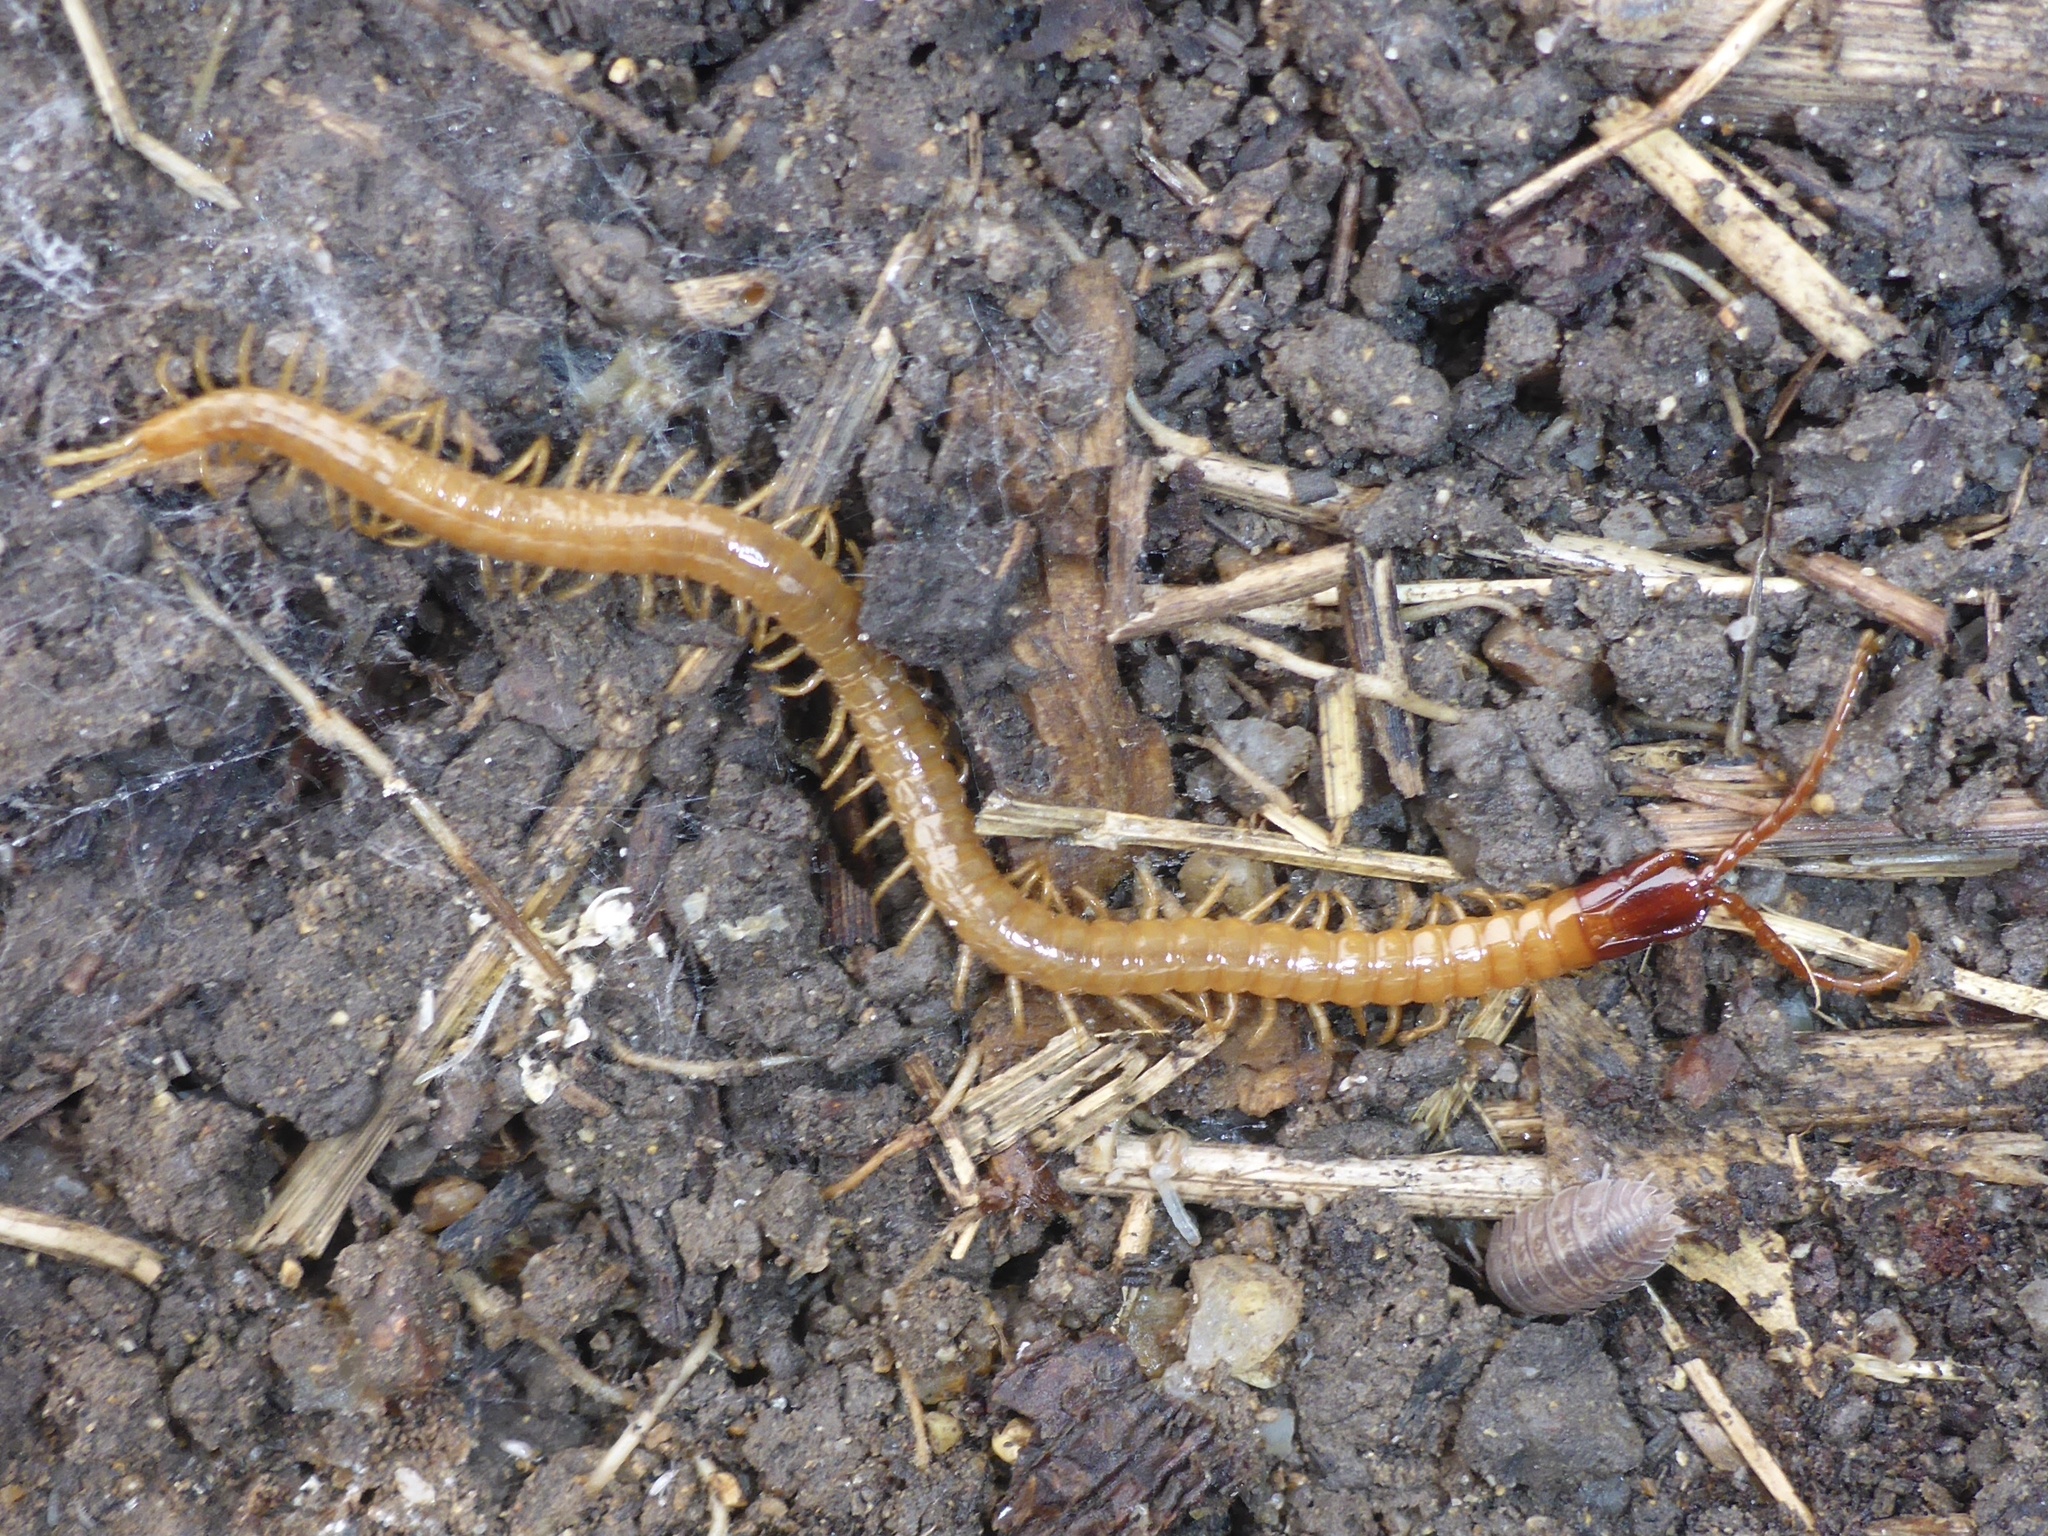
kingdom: Animalia
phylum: Arthropoda
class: Chilopoda
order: Geophilomorpha
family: Mecistocephalidae
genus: Dicellophilus
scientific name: Dicellophilus limatus
